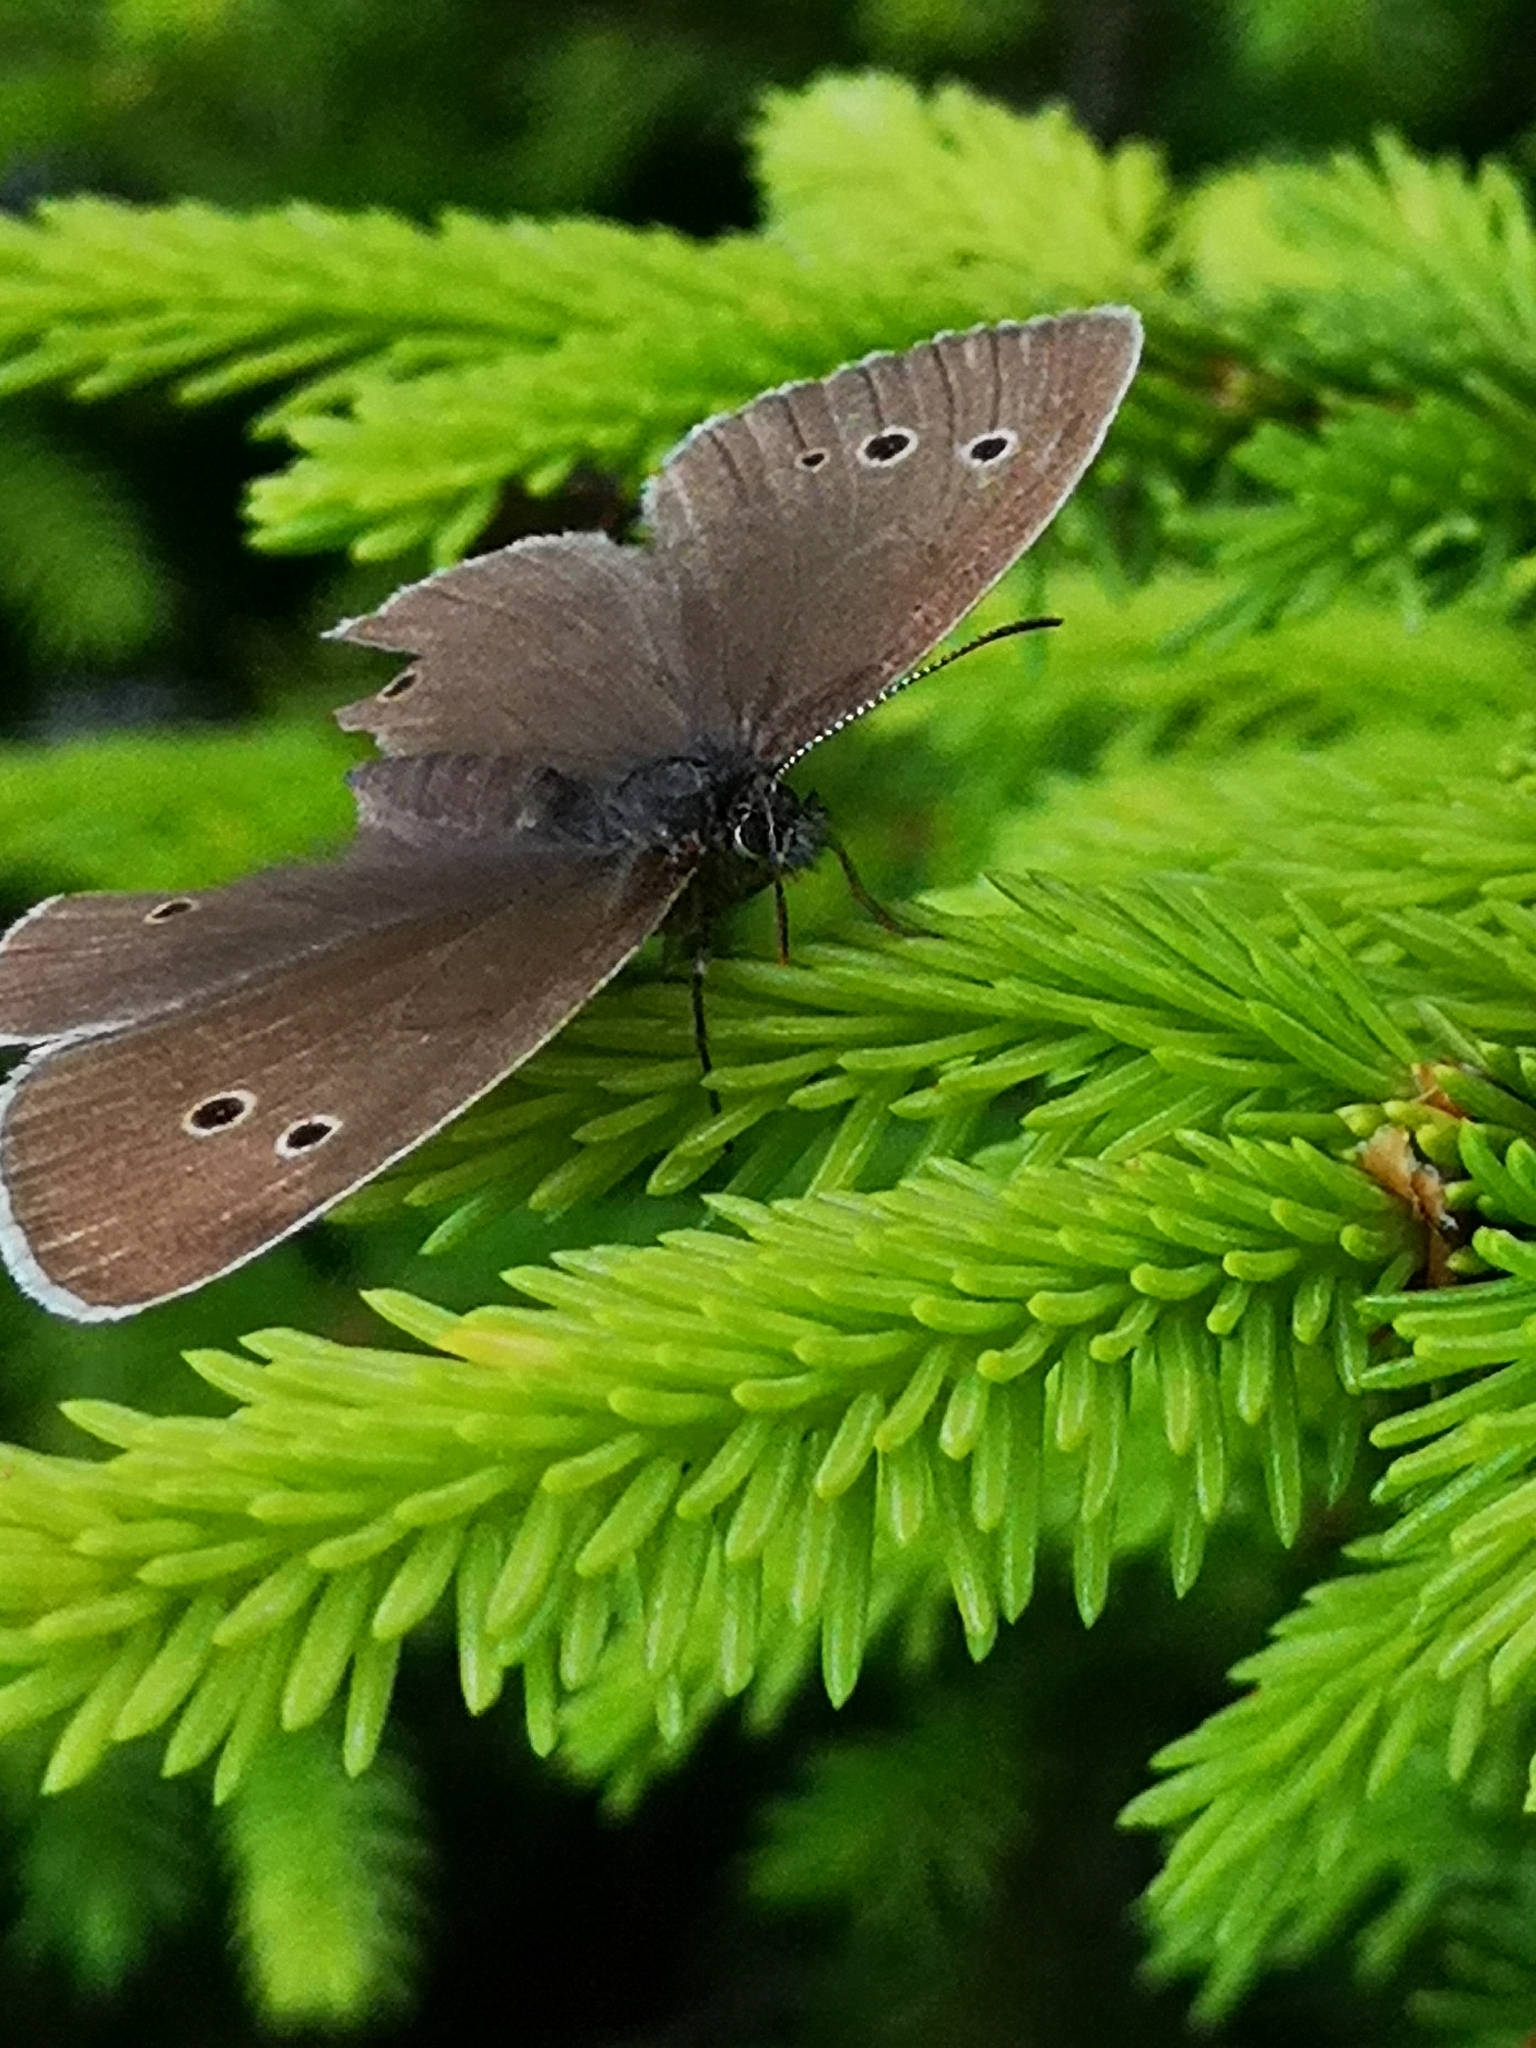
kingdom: Animalia
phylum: Arthropoda
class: Insecta
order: Lepidoptera
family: Nymphalidae
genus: Aphantopus
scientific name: Aphantopus hyperantus
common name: Ringlet
